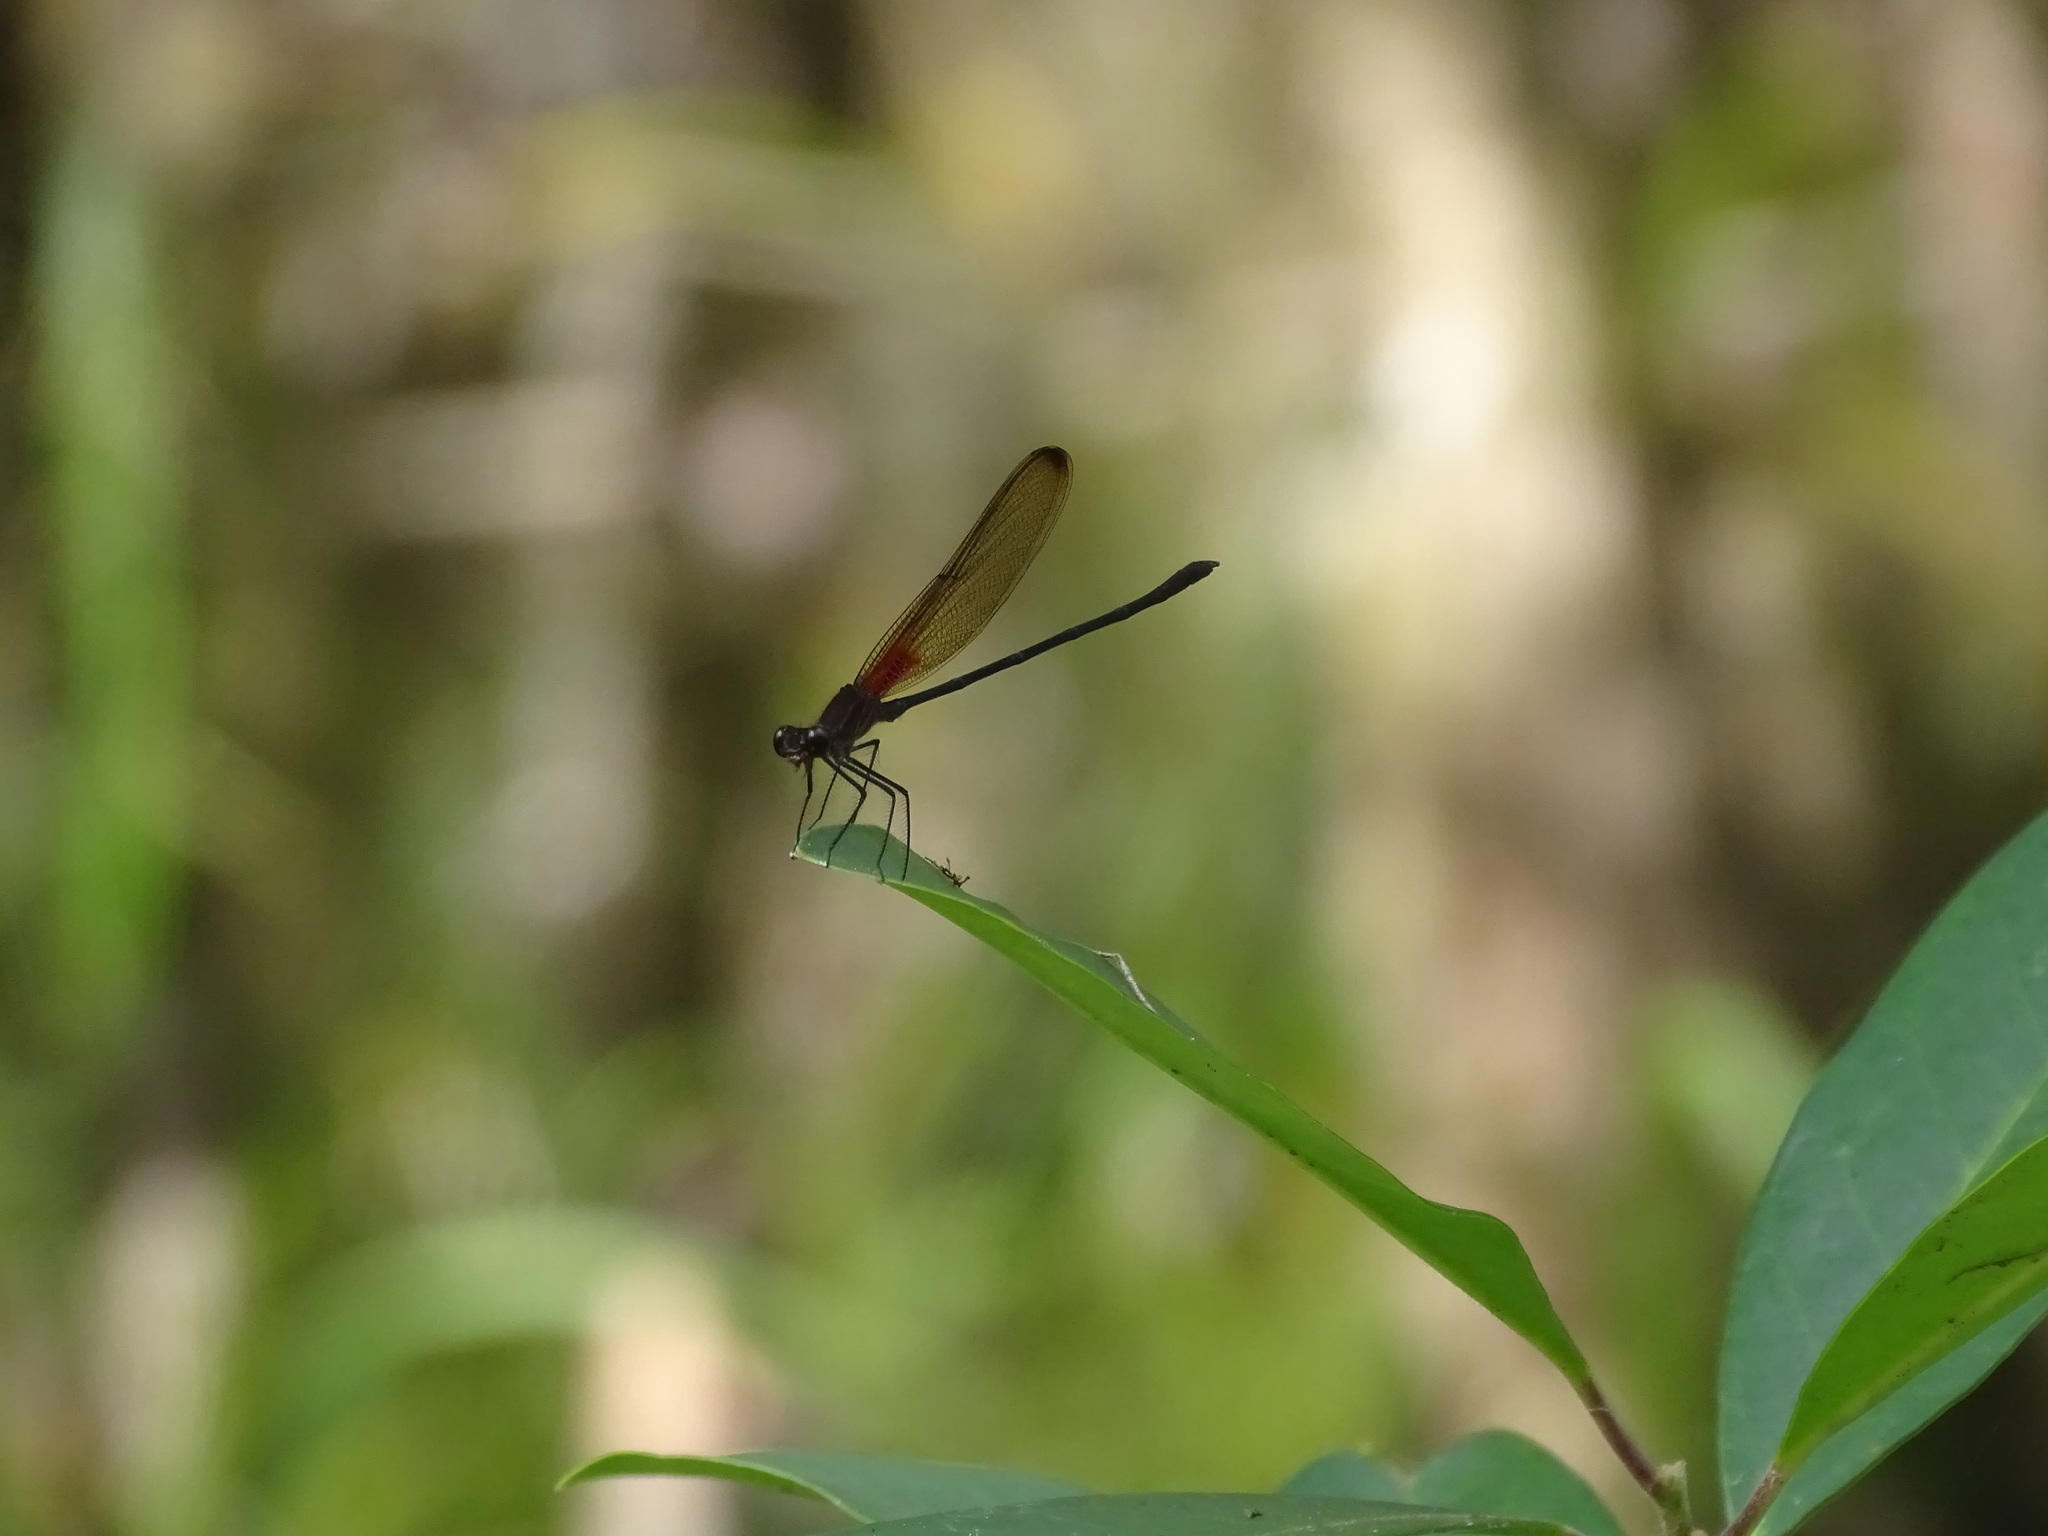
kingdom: Animalia
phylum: Arthropoda
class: Insecta
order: Odonata
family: Calopterygidae
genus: Hetaerina
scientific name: Hetaerina titia
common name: Smoky rubyspot
